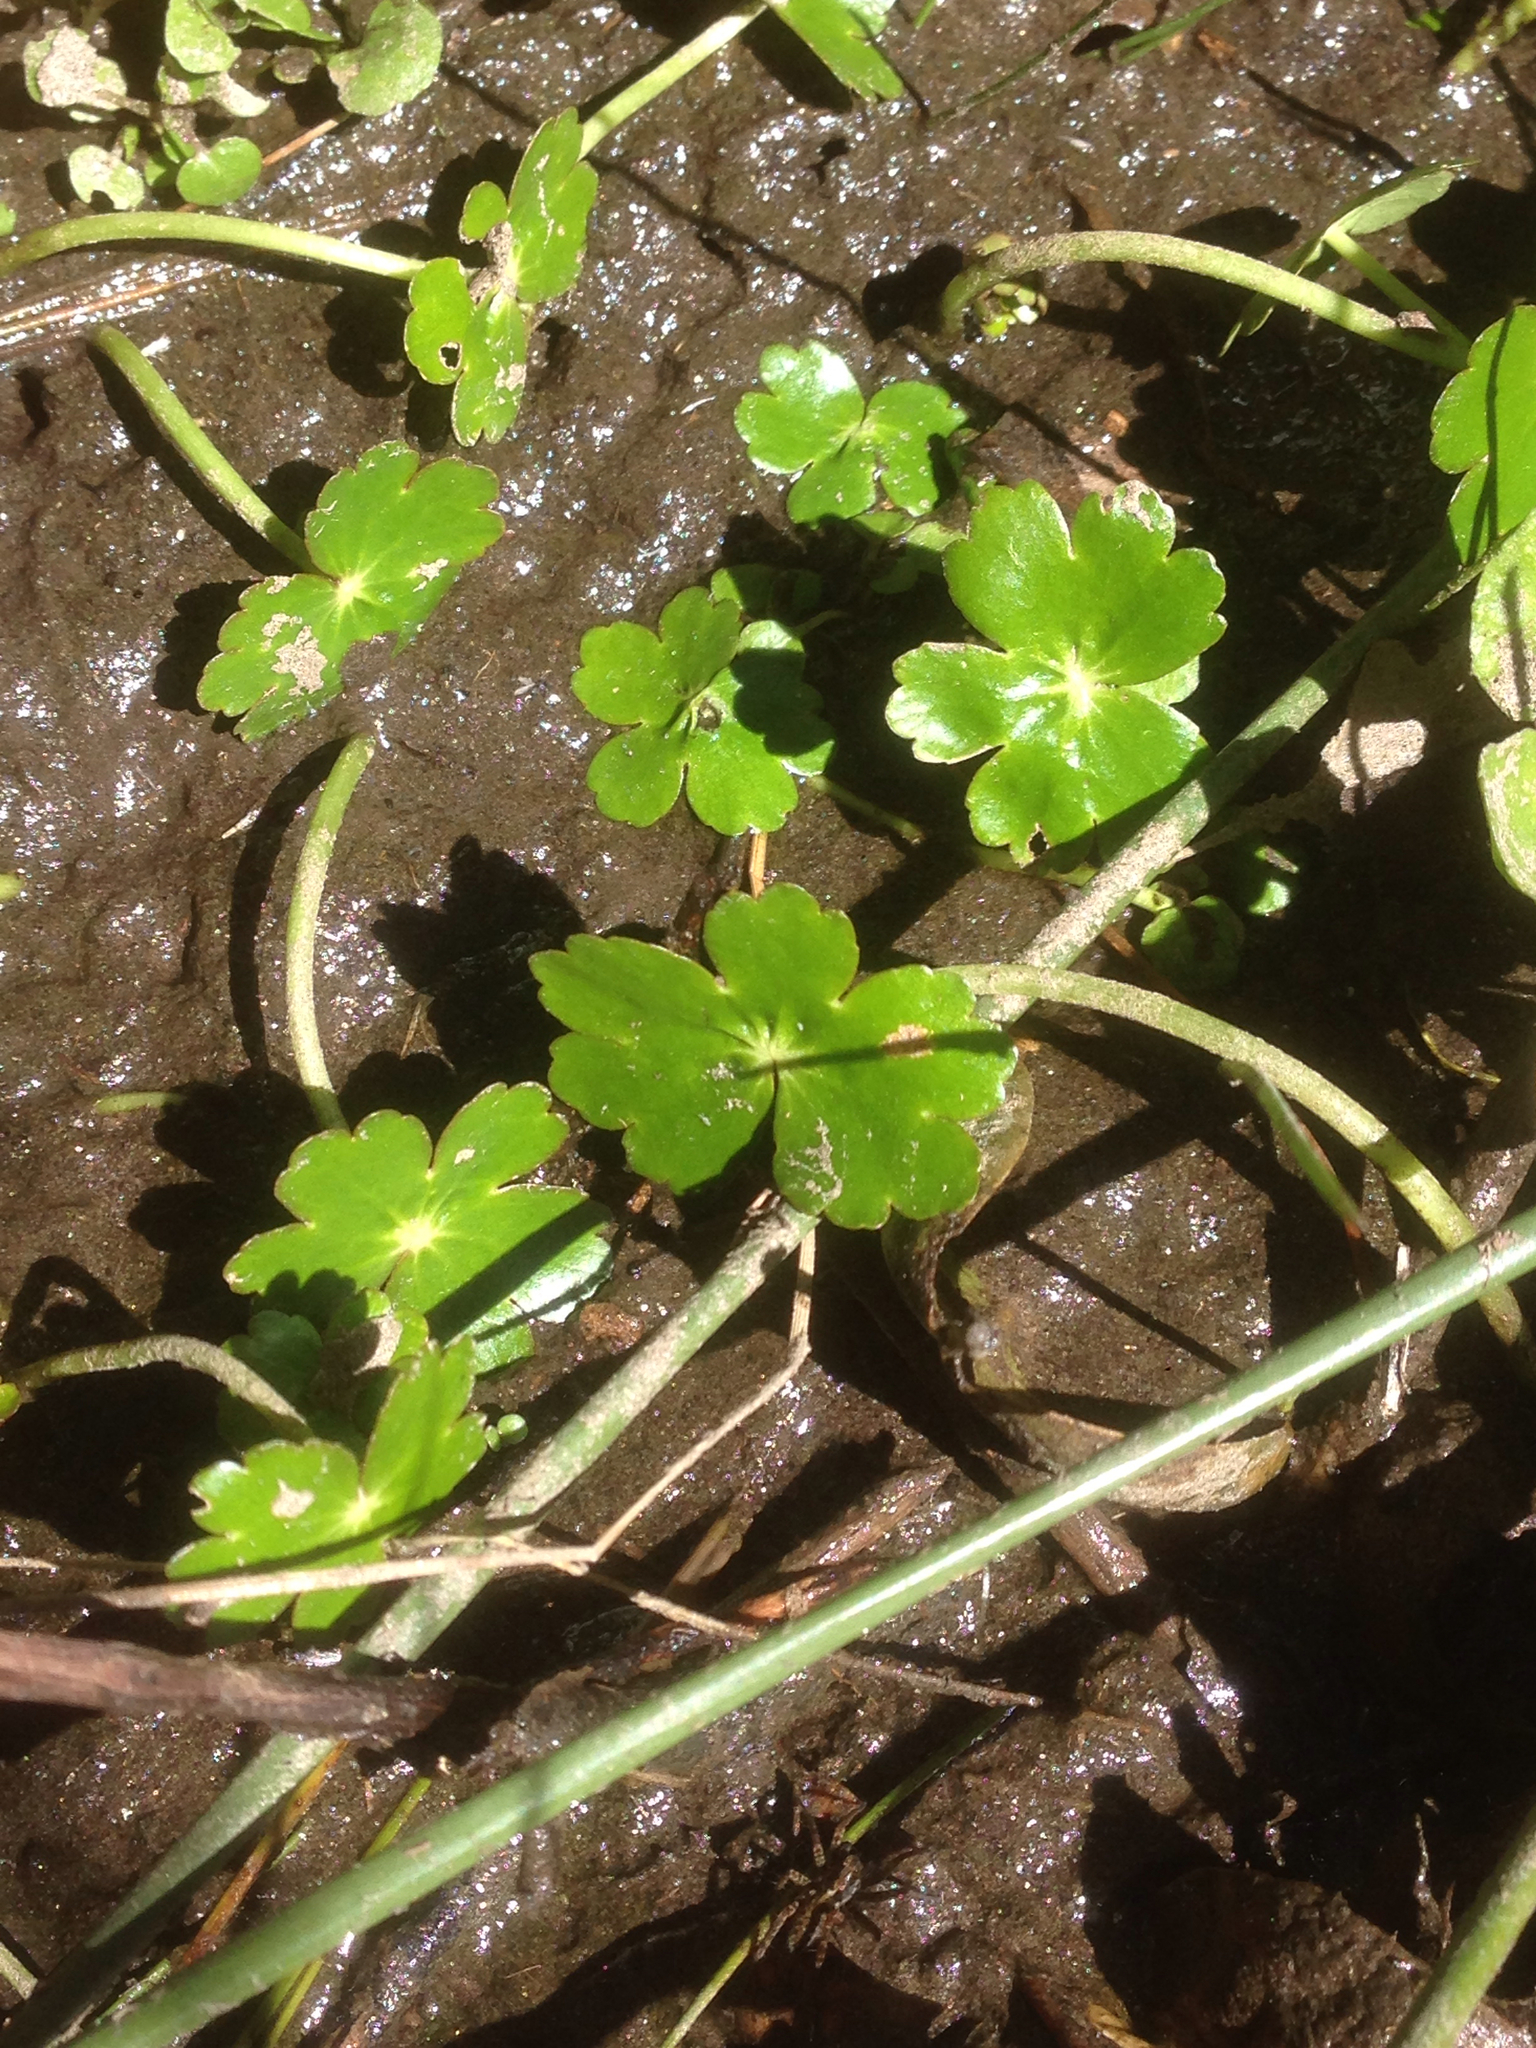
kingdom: Plantae
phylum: Tracheophyta
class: Magnoliopsida
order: Apiales
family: Araliaceae
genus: Hydrocotyle
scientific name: Hydrocotyle ranunculoides
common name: Floating pennywort
